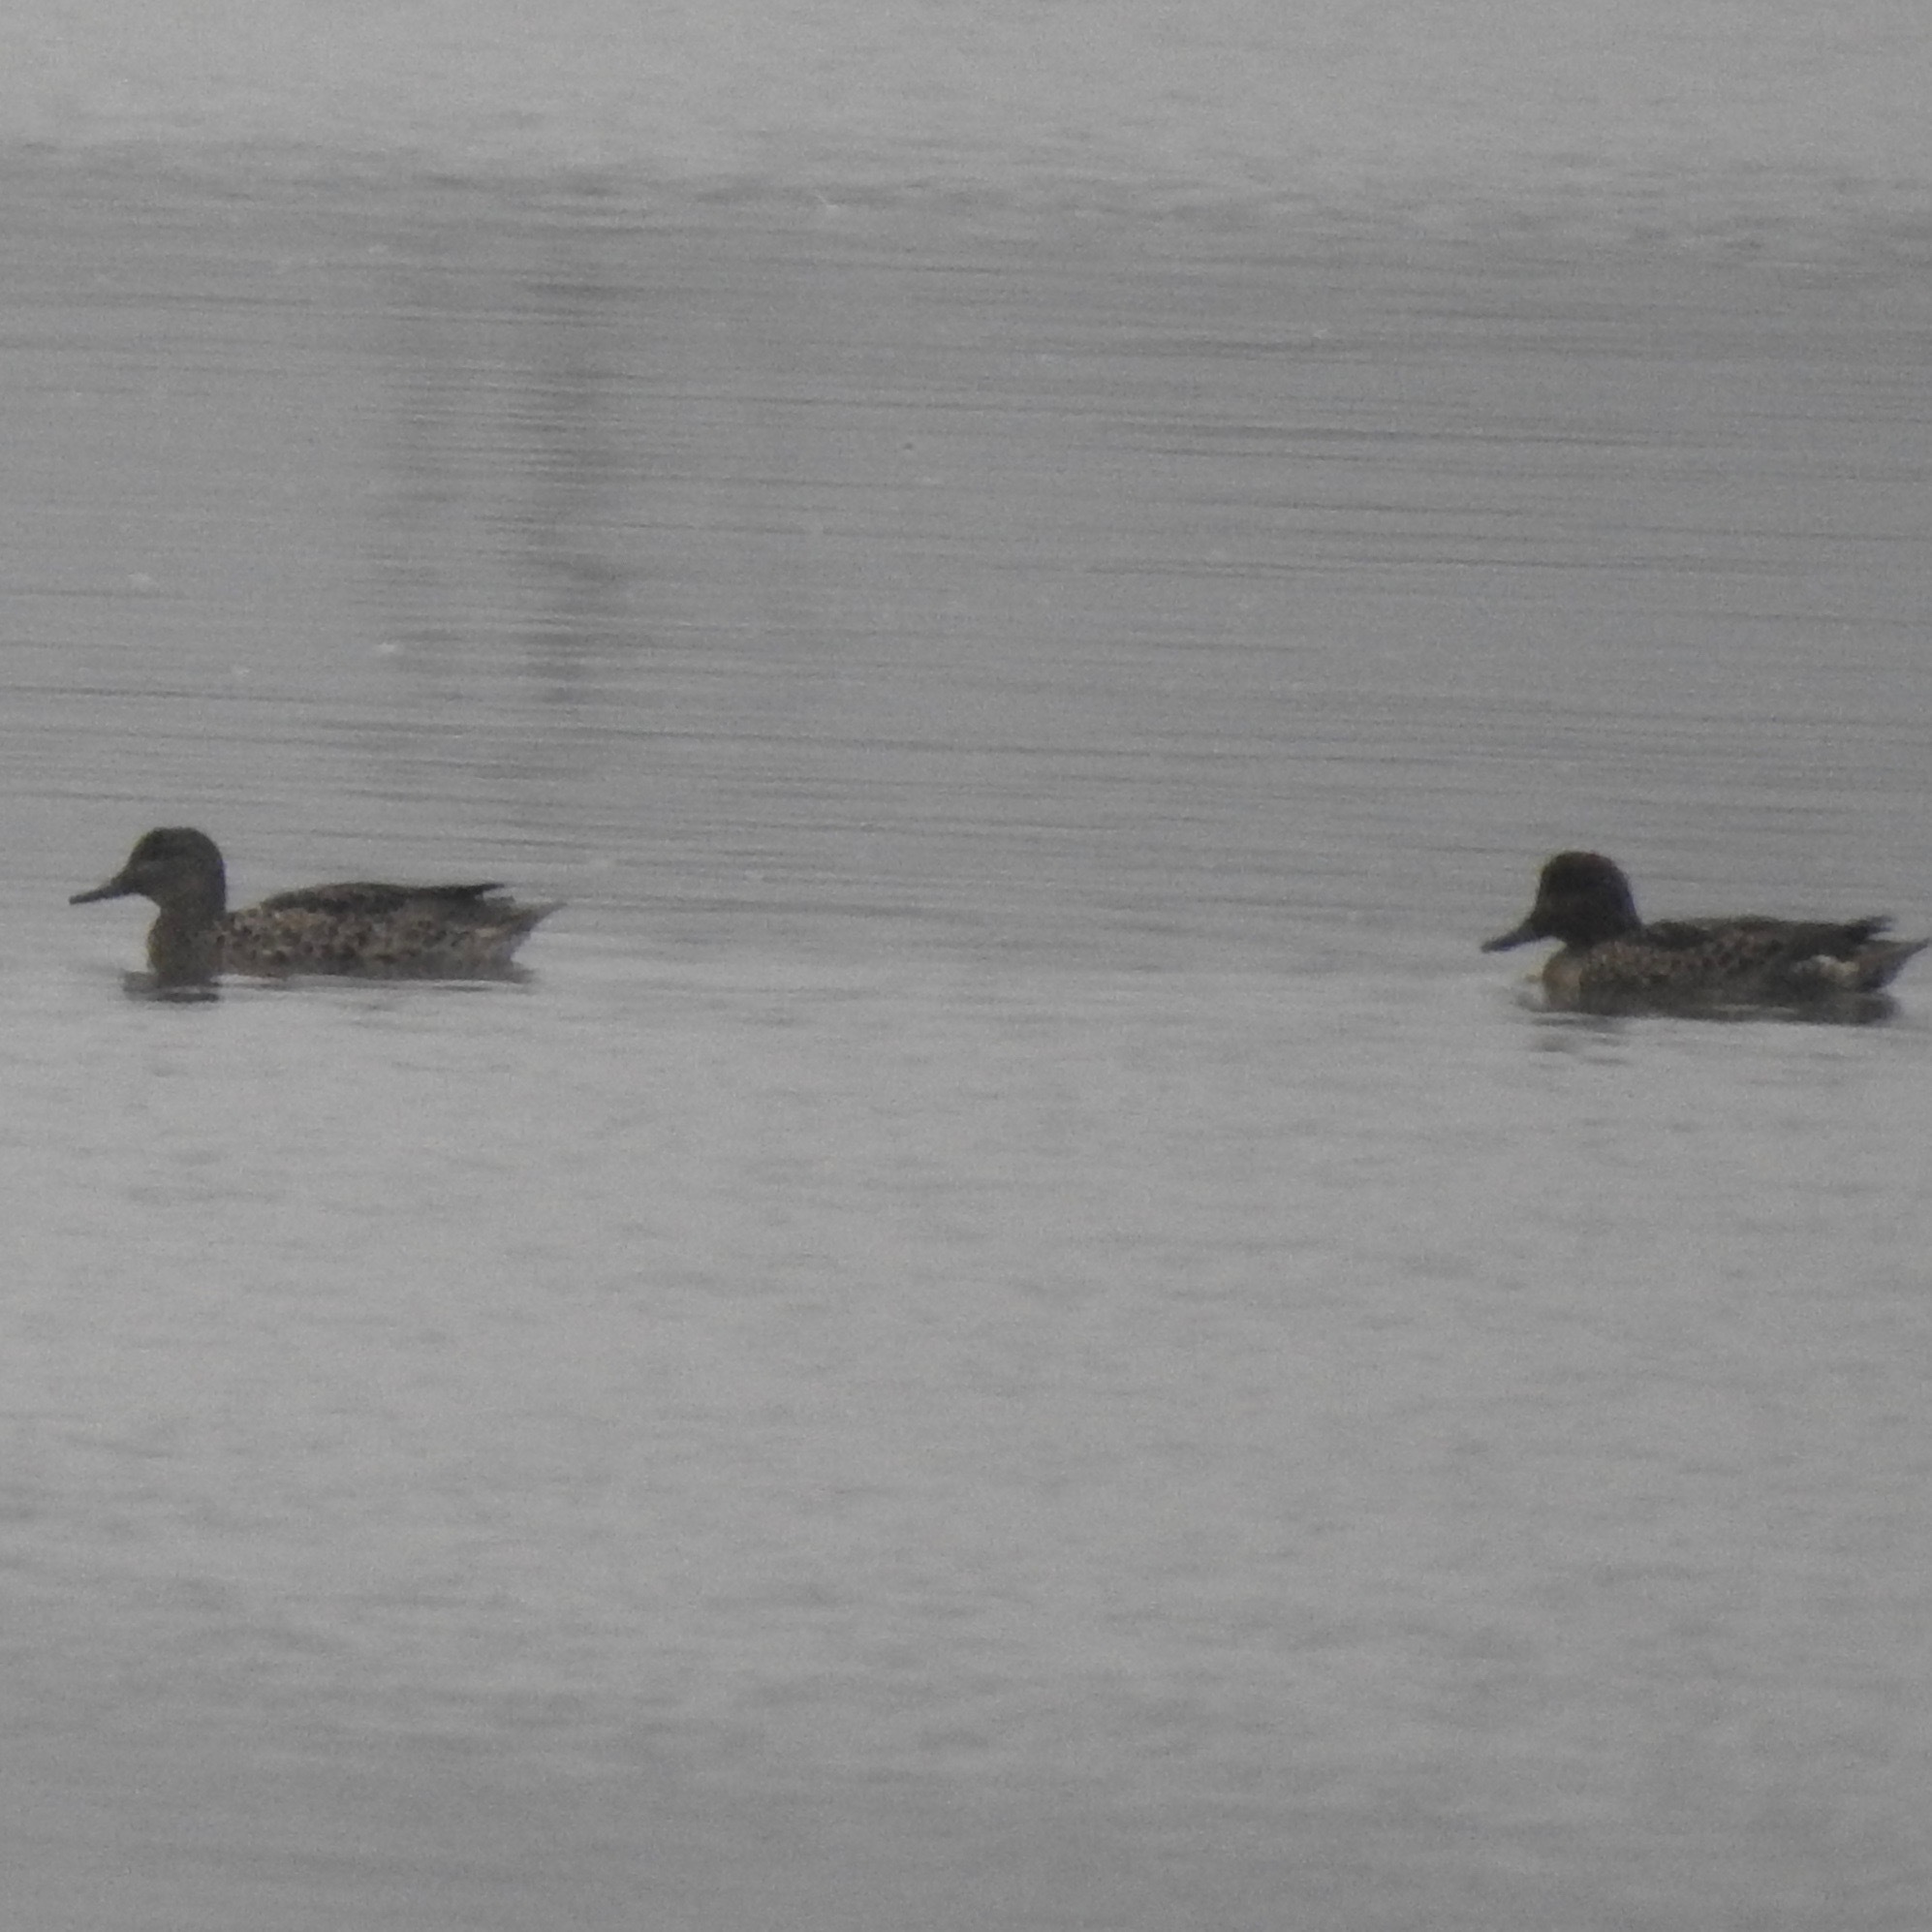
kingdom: Animalia
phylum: Chordata
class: Aves
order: Anseriformes
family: Anatidae
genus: Anas
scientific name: Anas crecca
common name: Eurasian teal
